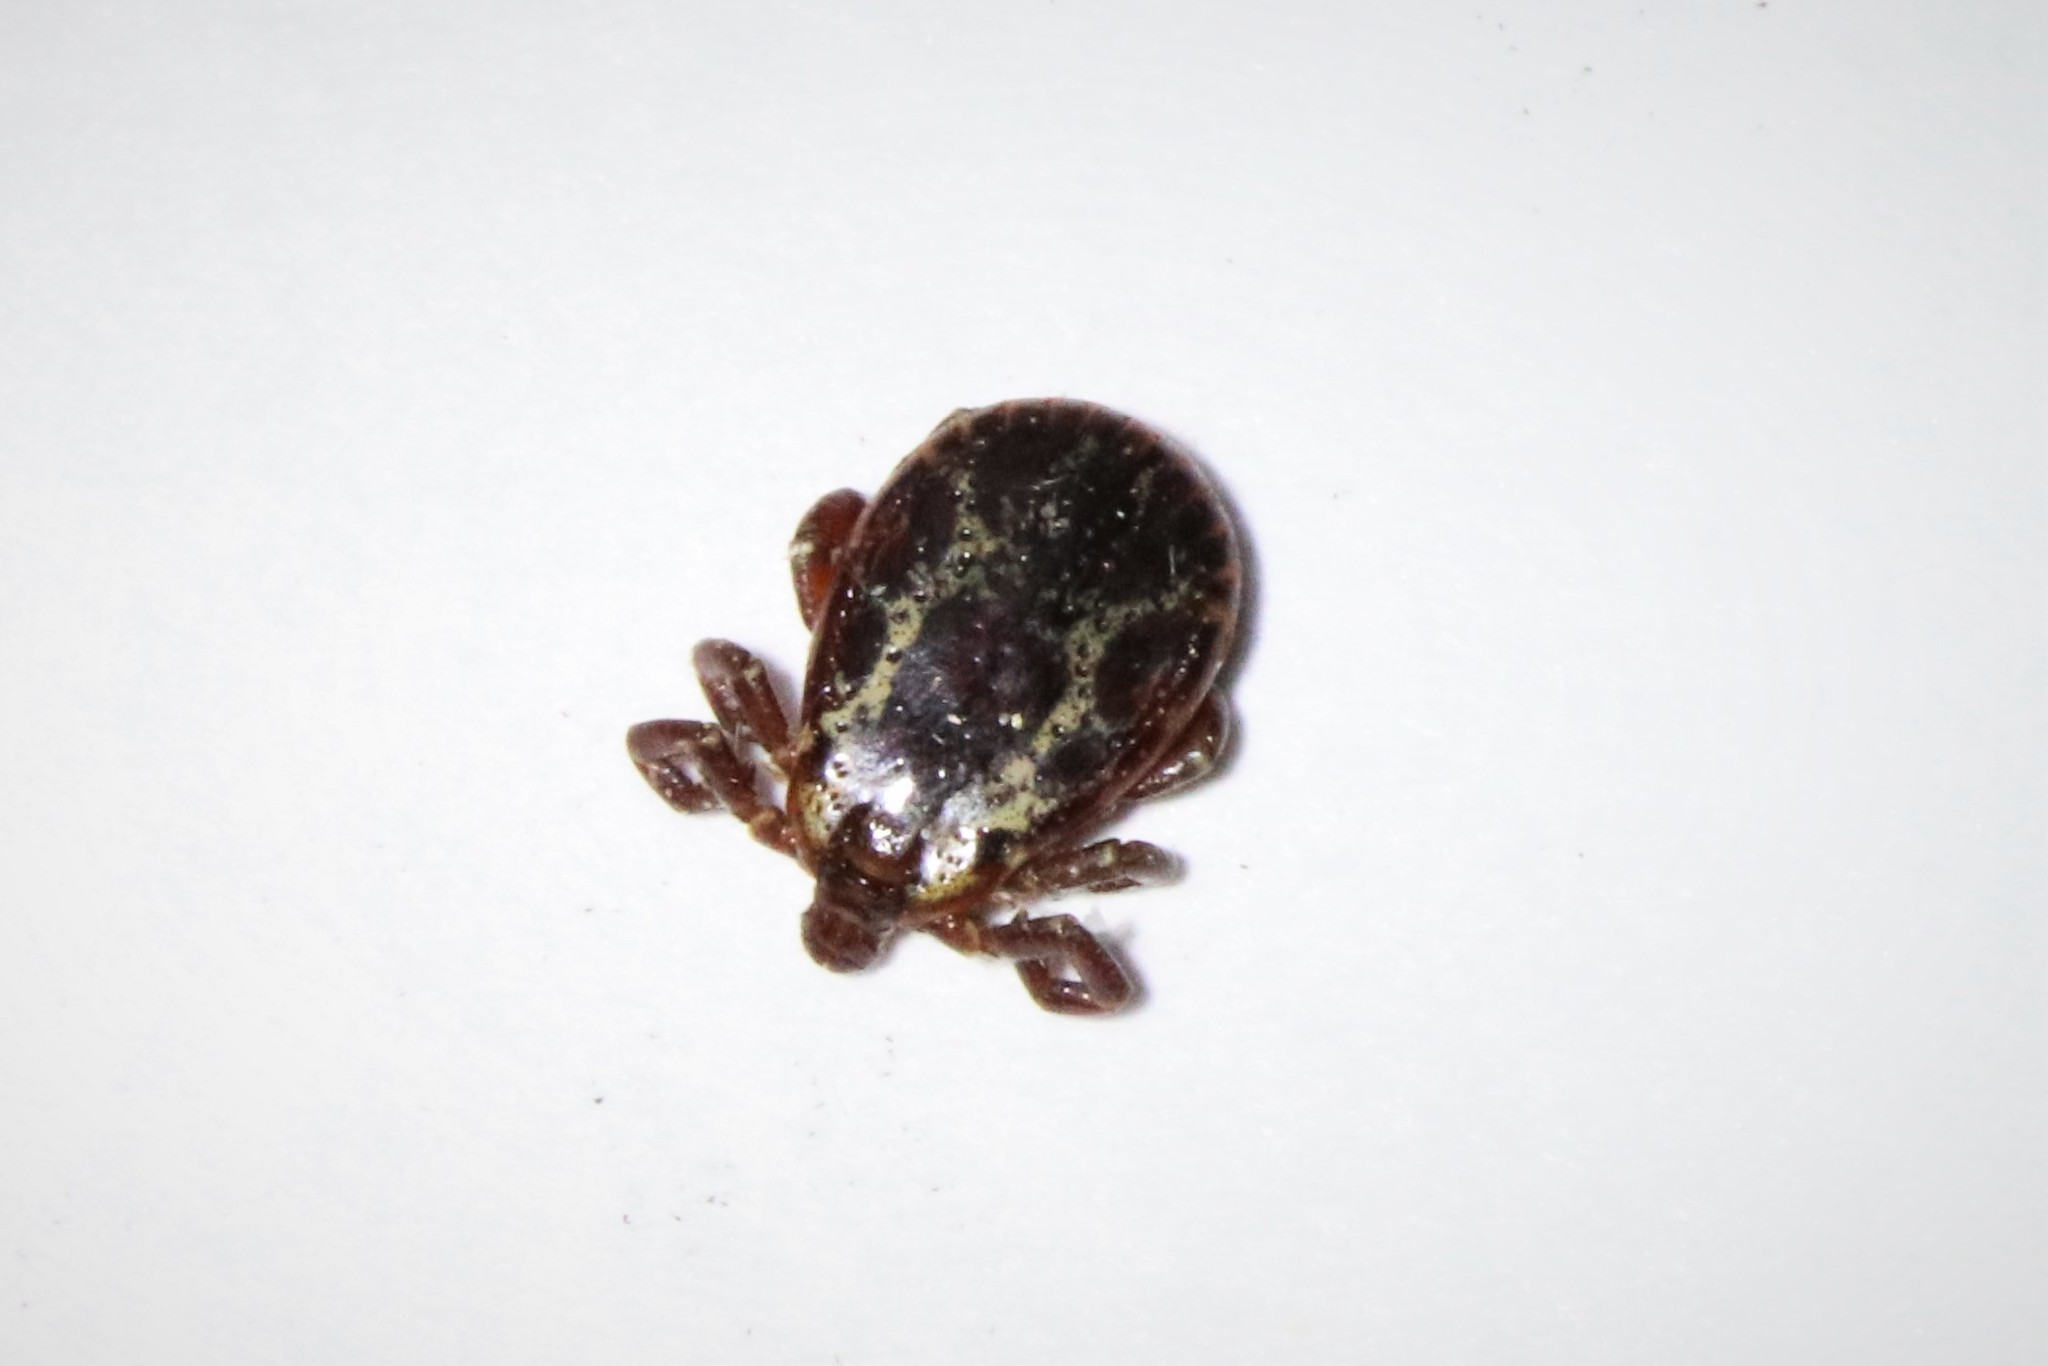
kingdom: Animalia
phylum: Arthropoda
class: Arachnida
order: Ixodida
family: Ixodidae
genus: Dermacentor
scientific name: Dermacentor variabilis
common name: American dog tick
